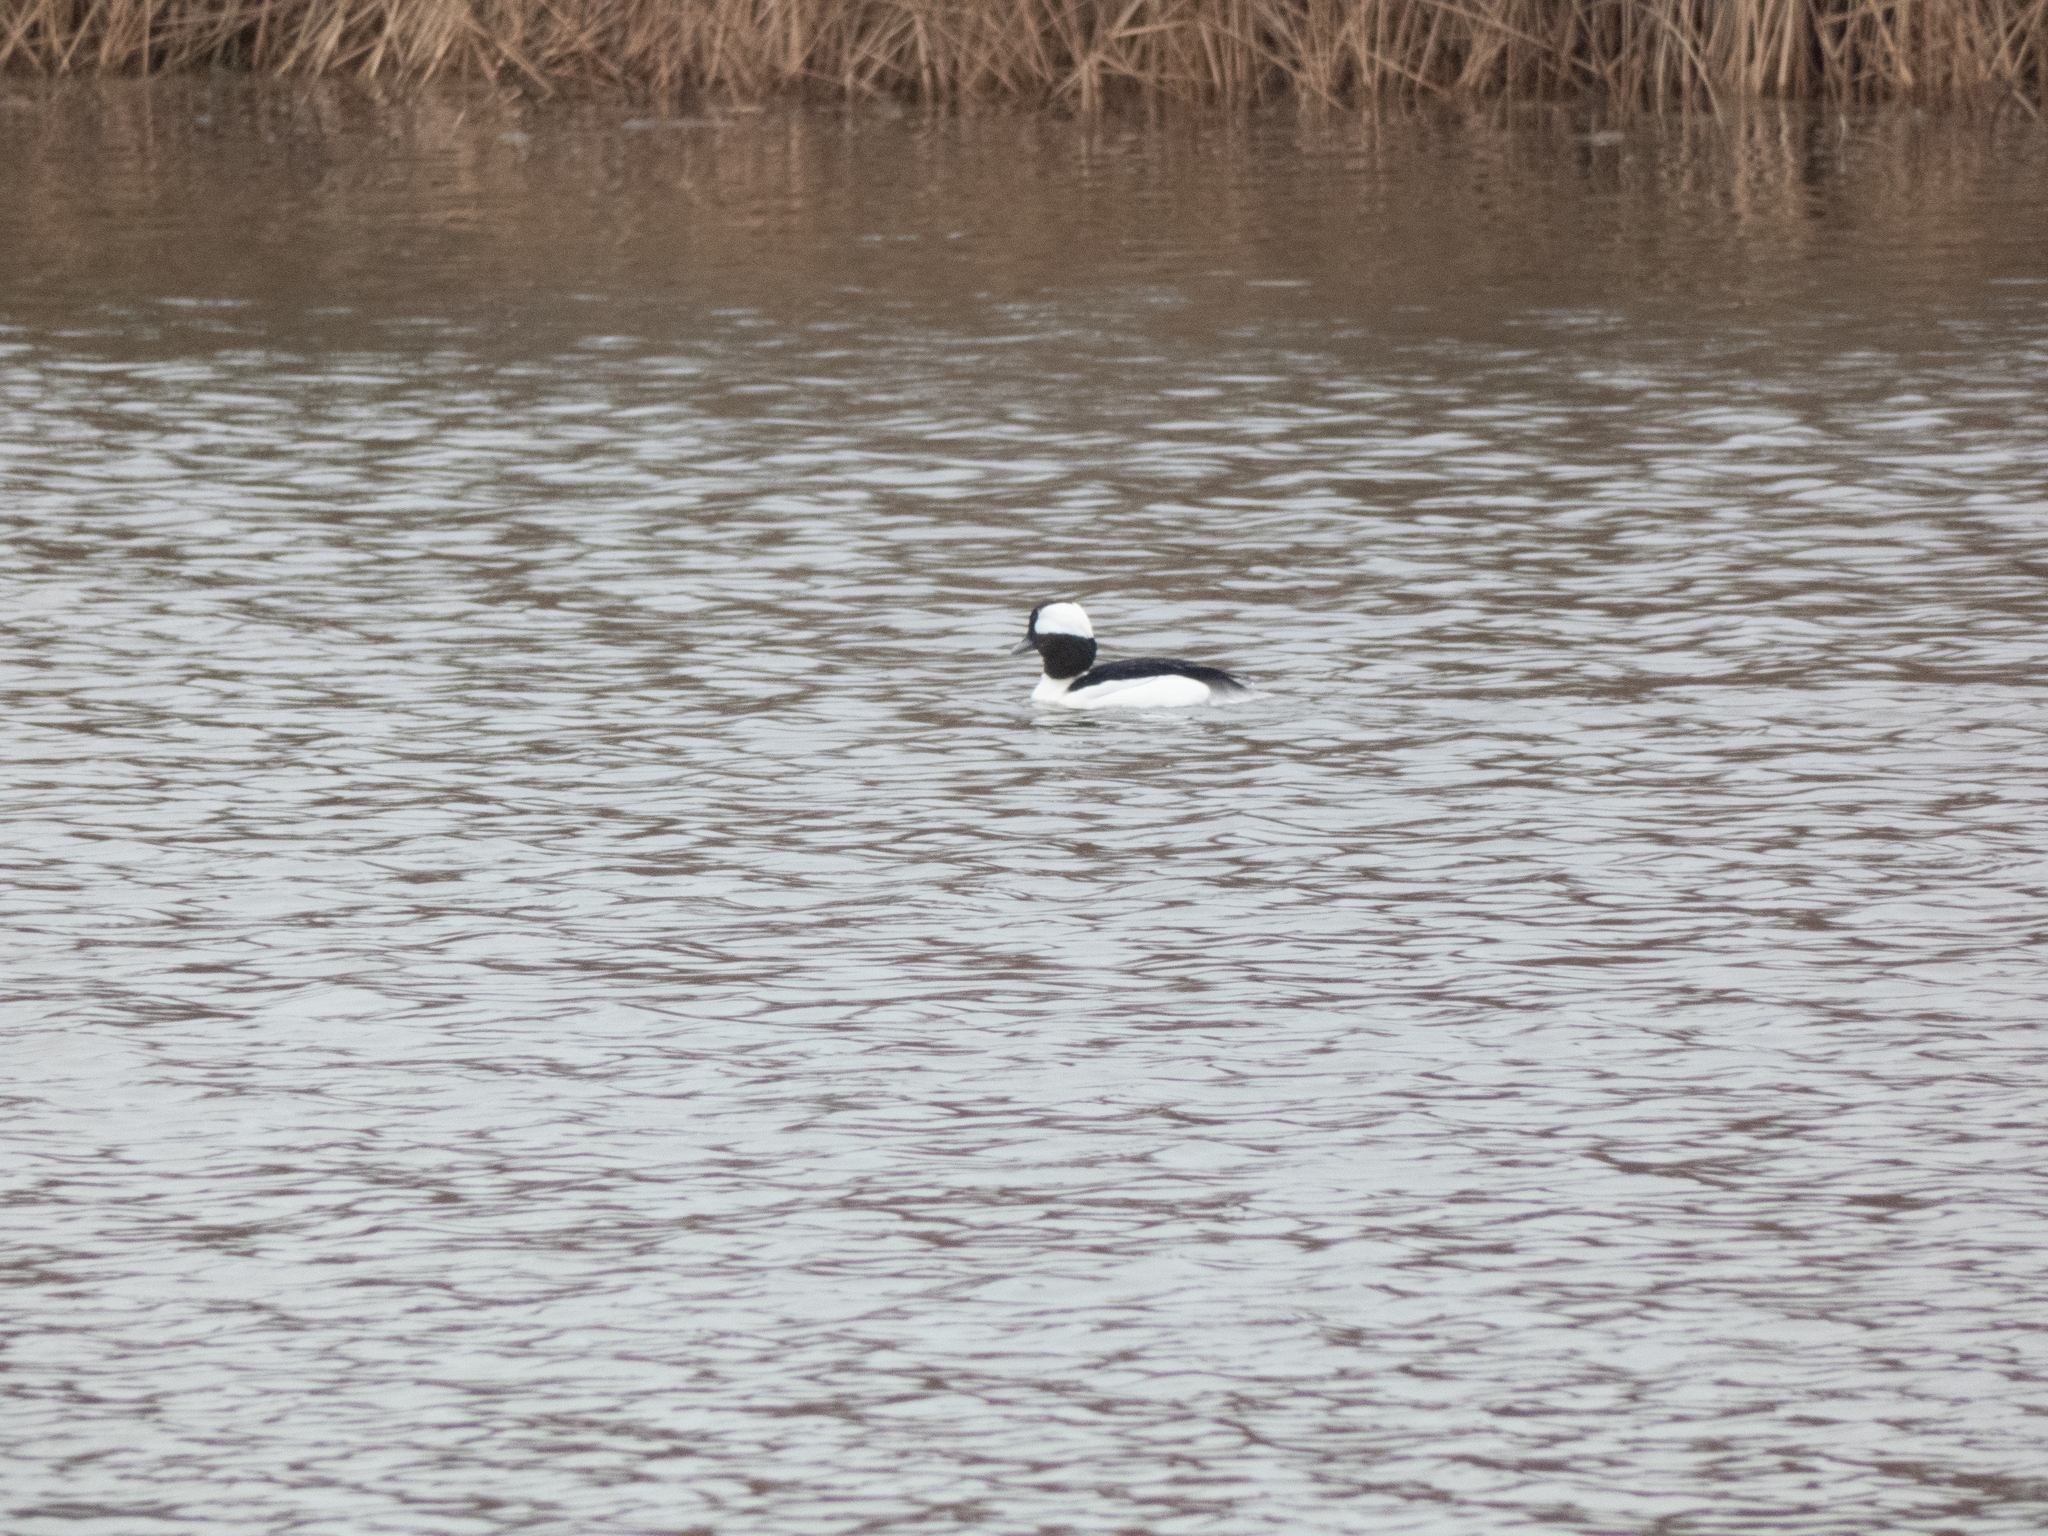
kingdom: Animalia
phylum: Chordata
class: Aves
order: Anseriformes
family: Anatidae
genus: Bucephala
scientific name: Bucephala albeola
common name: Bufflehead
